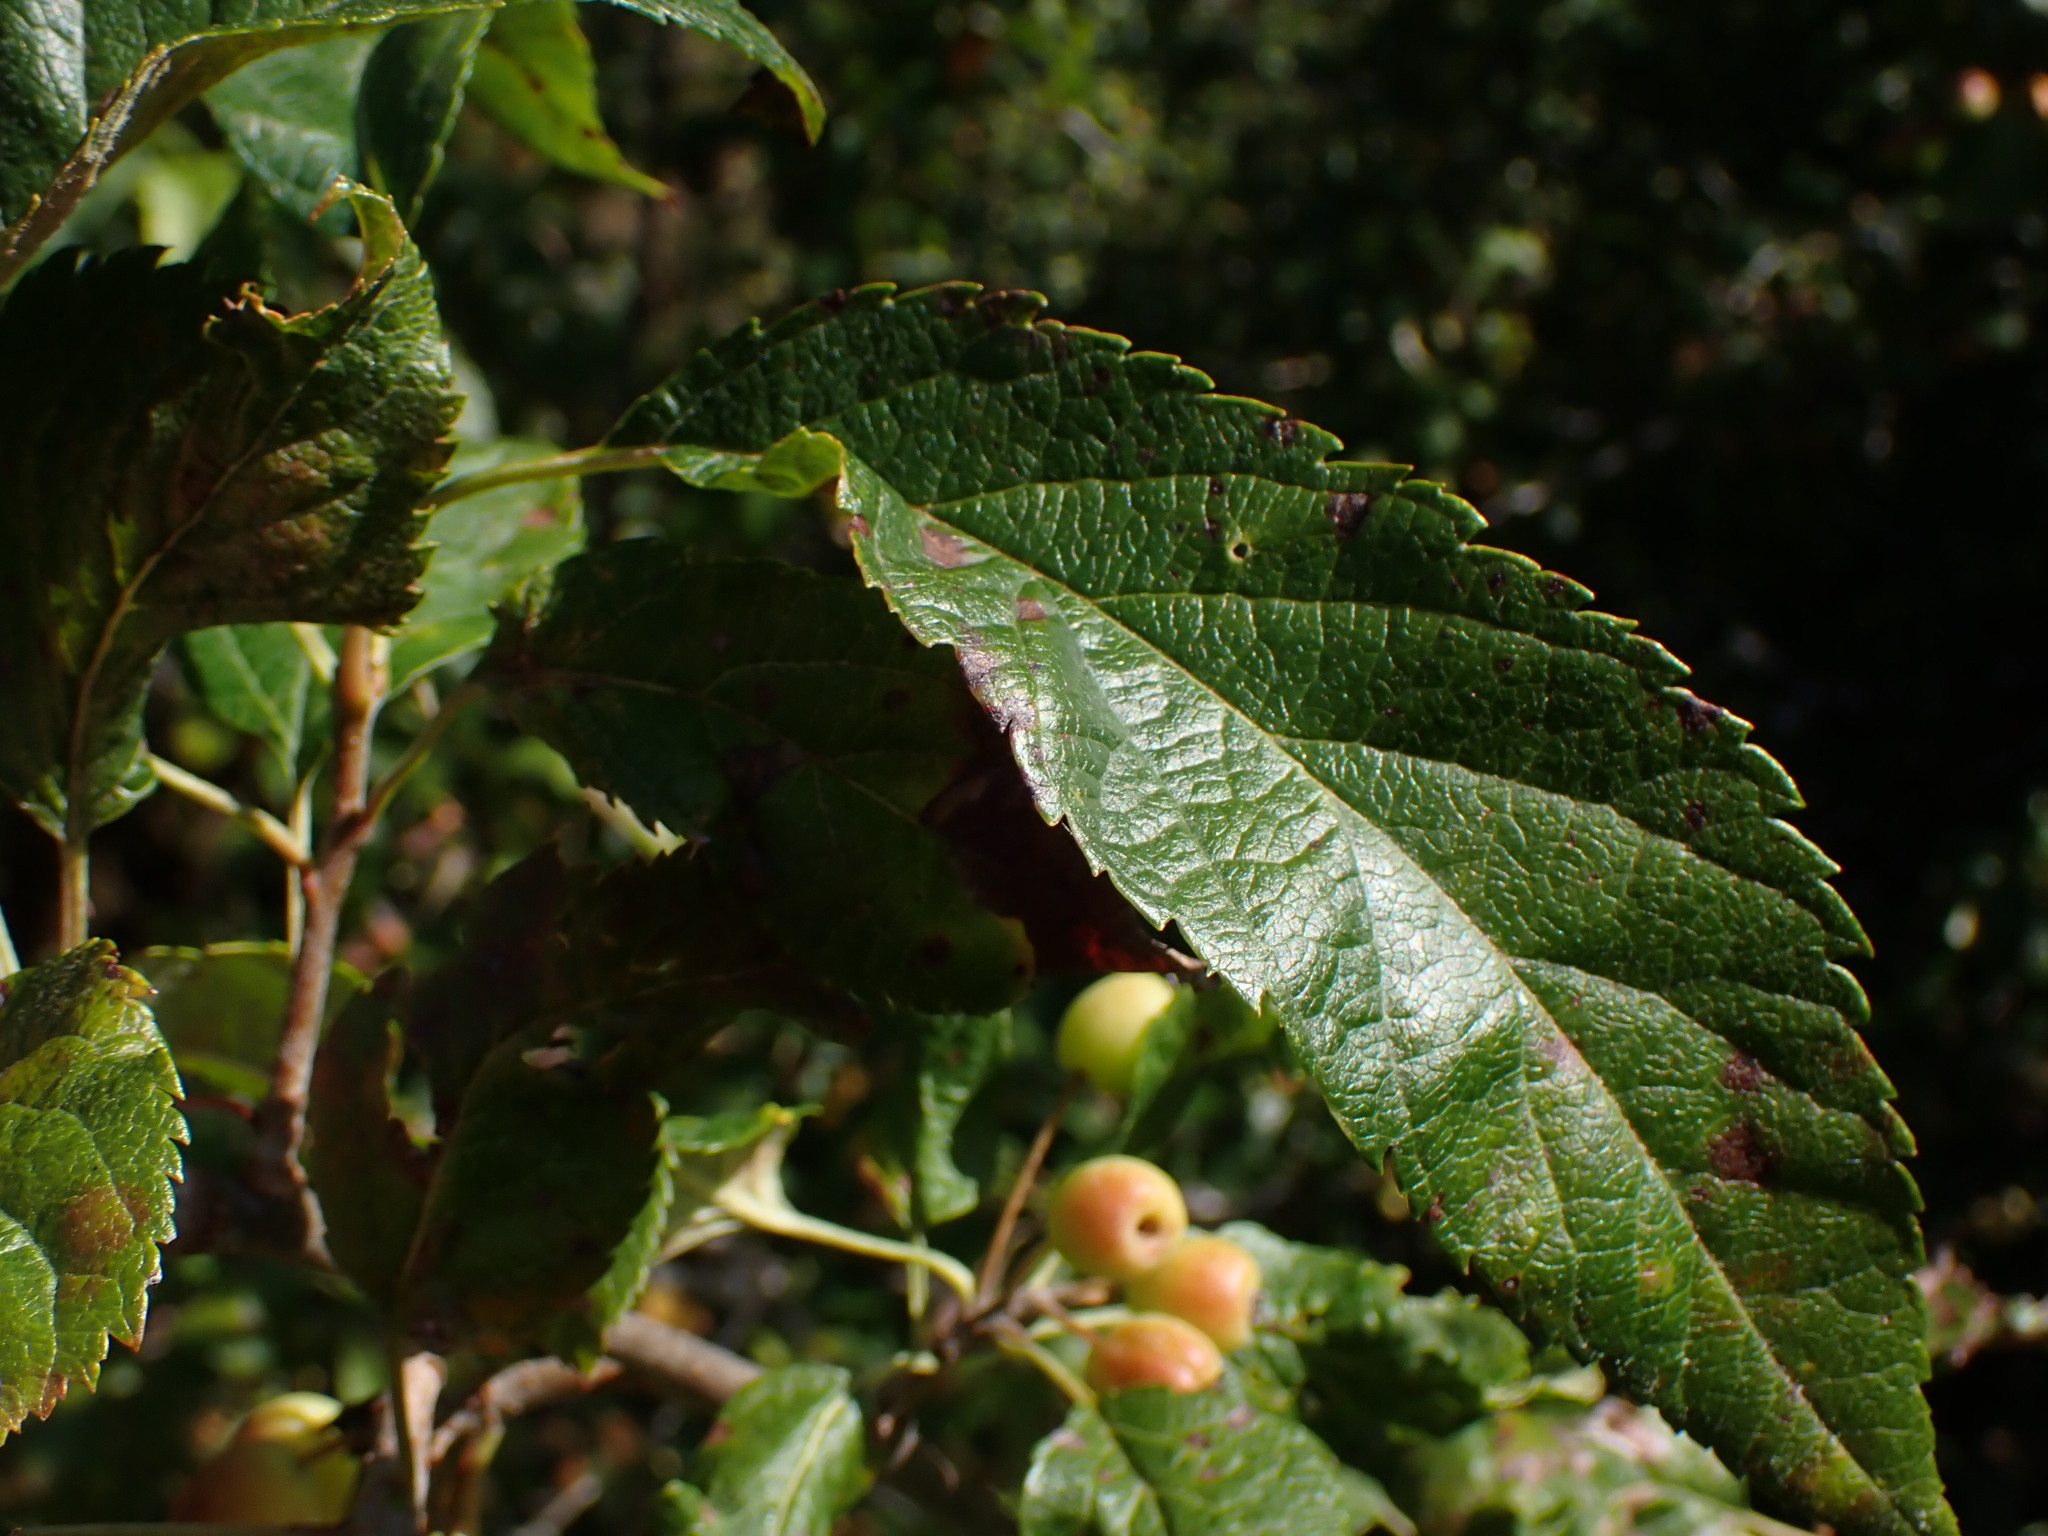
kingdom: Plantae
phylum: Tracheophyta
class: Magnoliopsida
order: Rosales
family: Rosaceae
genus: Malus
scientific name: Malus fusca
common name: Oregon crab apple
